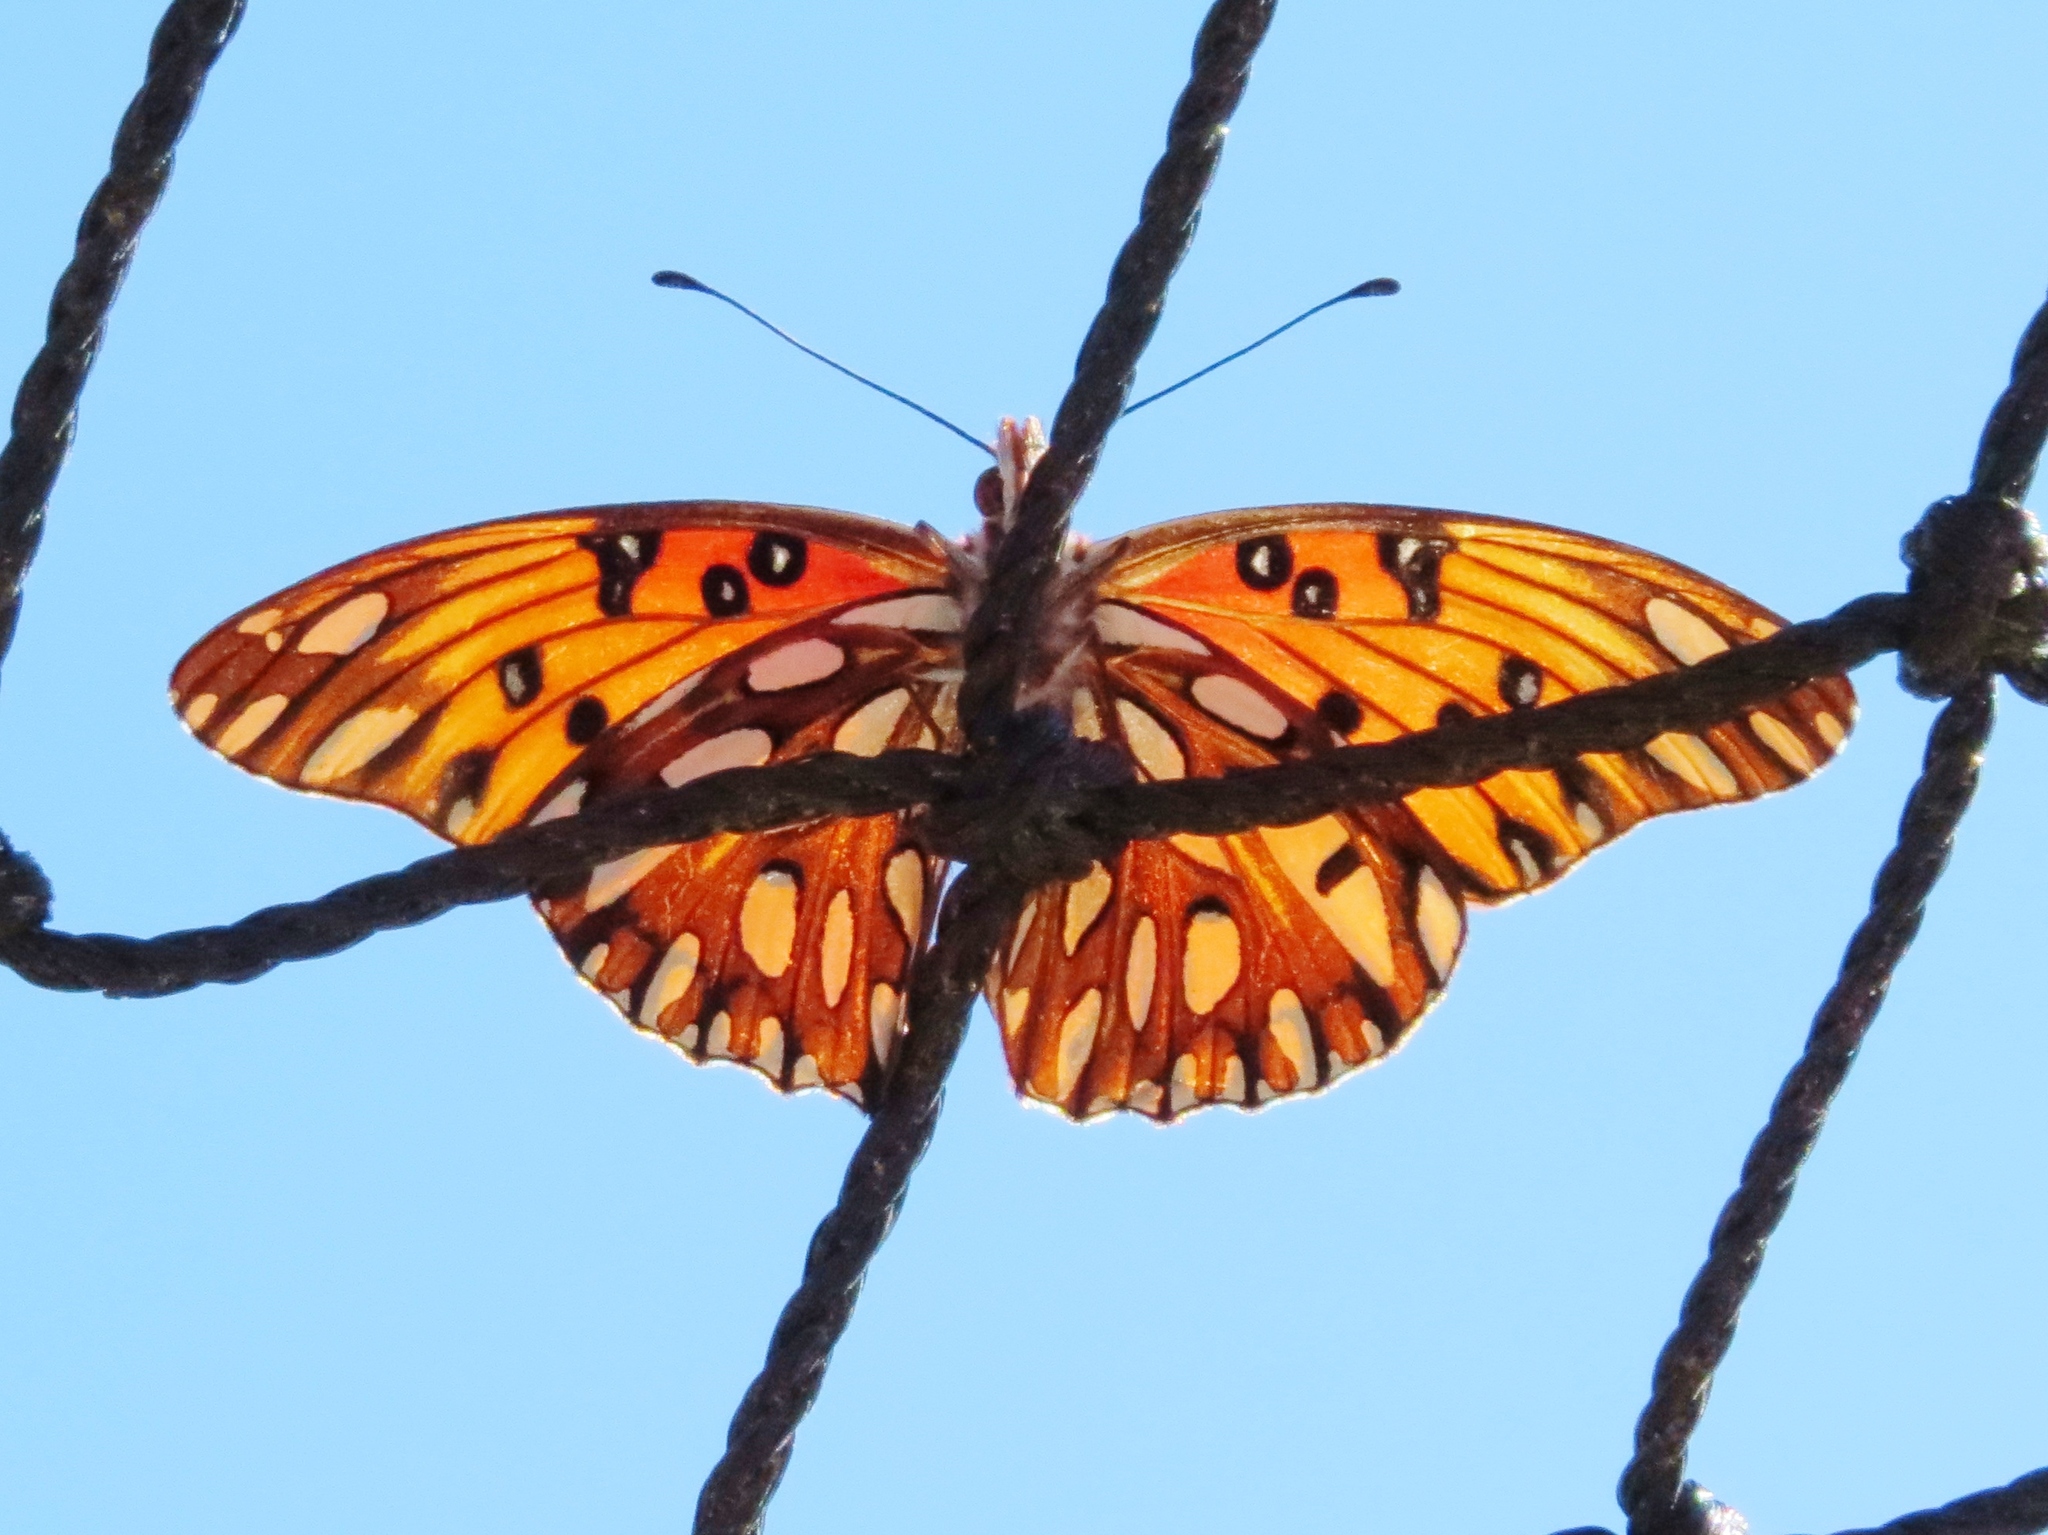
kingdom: Animalia
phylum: Arthropoda
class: Insecta
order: Lepidoptera
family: Nymphalidae
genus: Dione
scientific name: Dione vanillae
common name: Gulf fritillary
